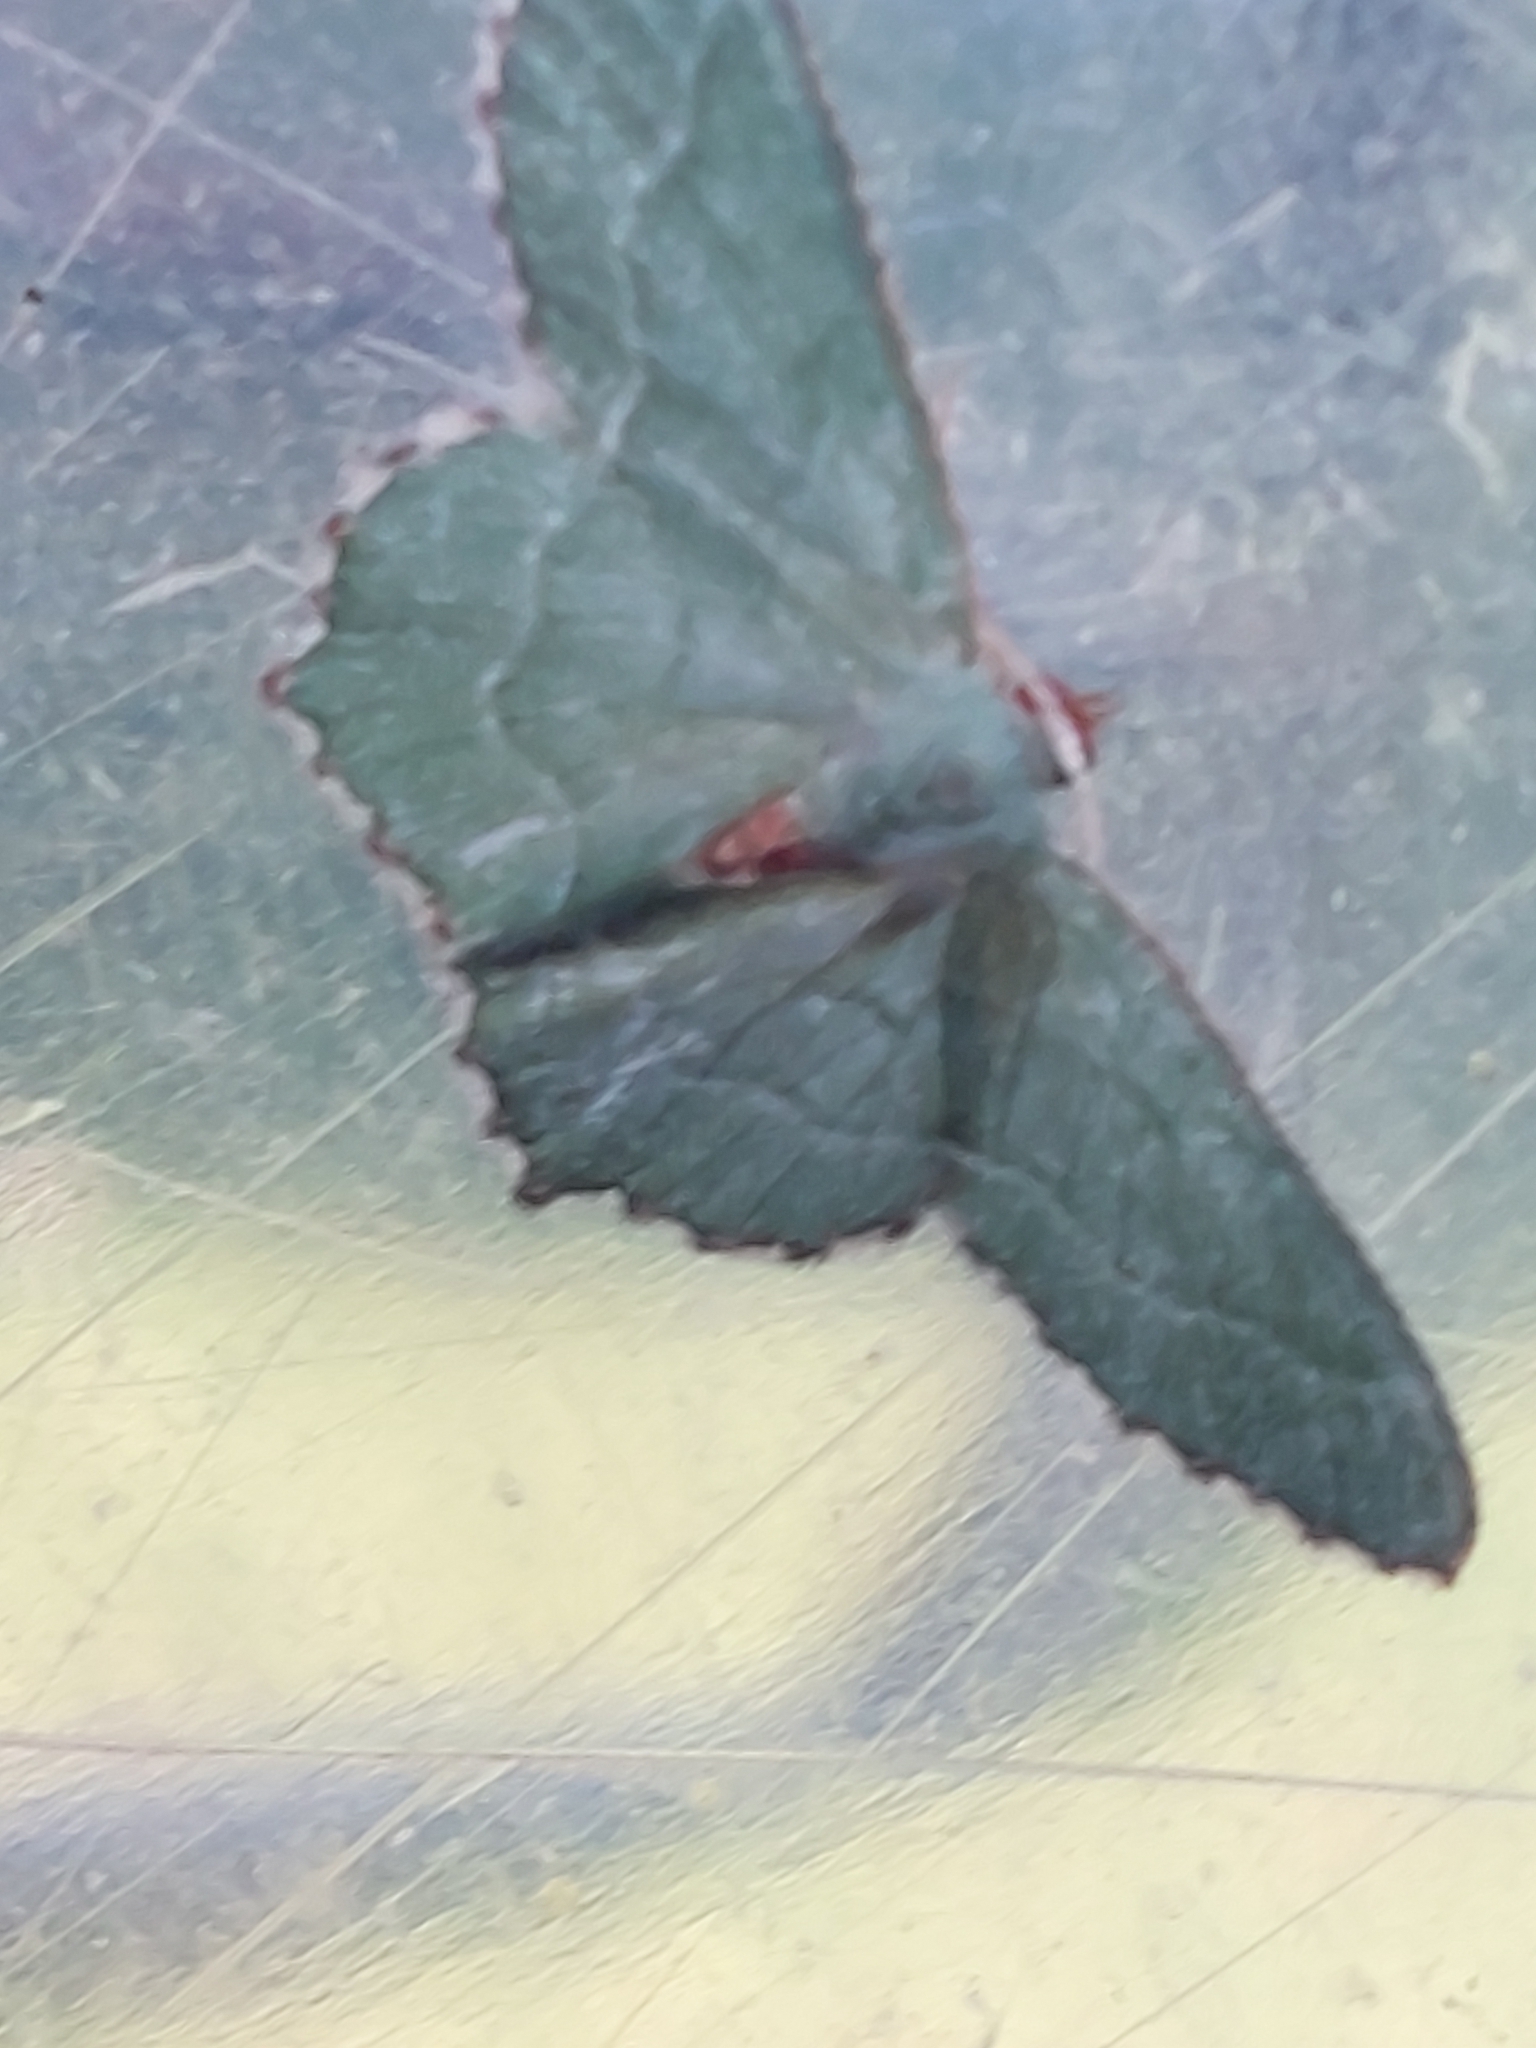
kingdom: Animalia
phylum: Arthropoda
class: Insecta
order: Lepidoptera
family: Geometridae
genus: Hemithea
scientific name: Hemithea aestivaria
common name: Common emerald
